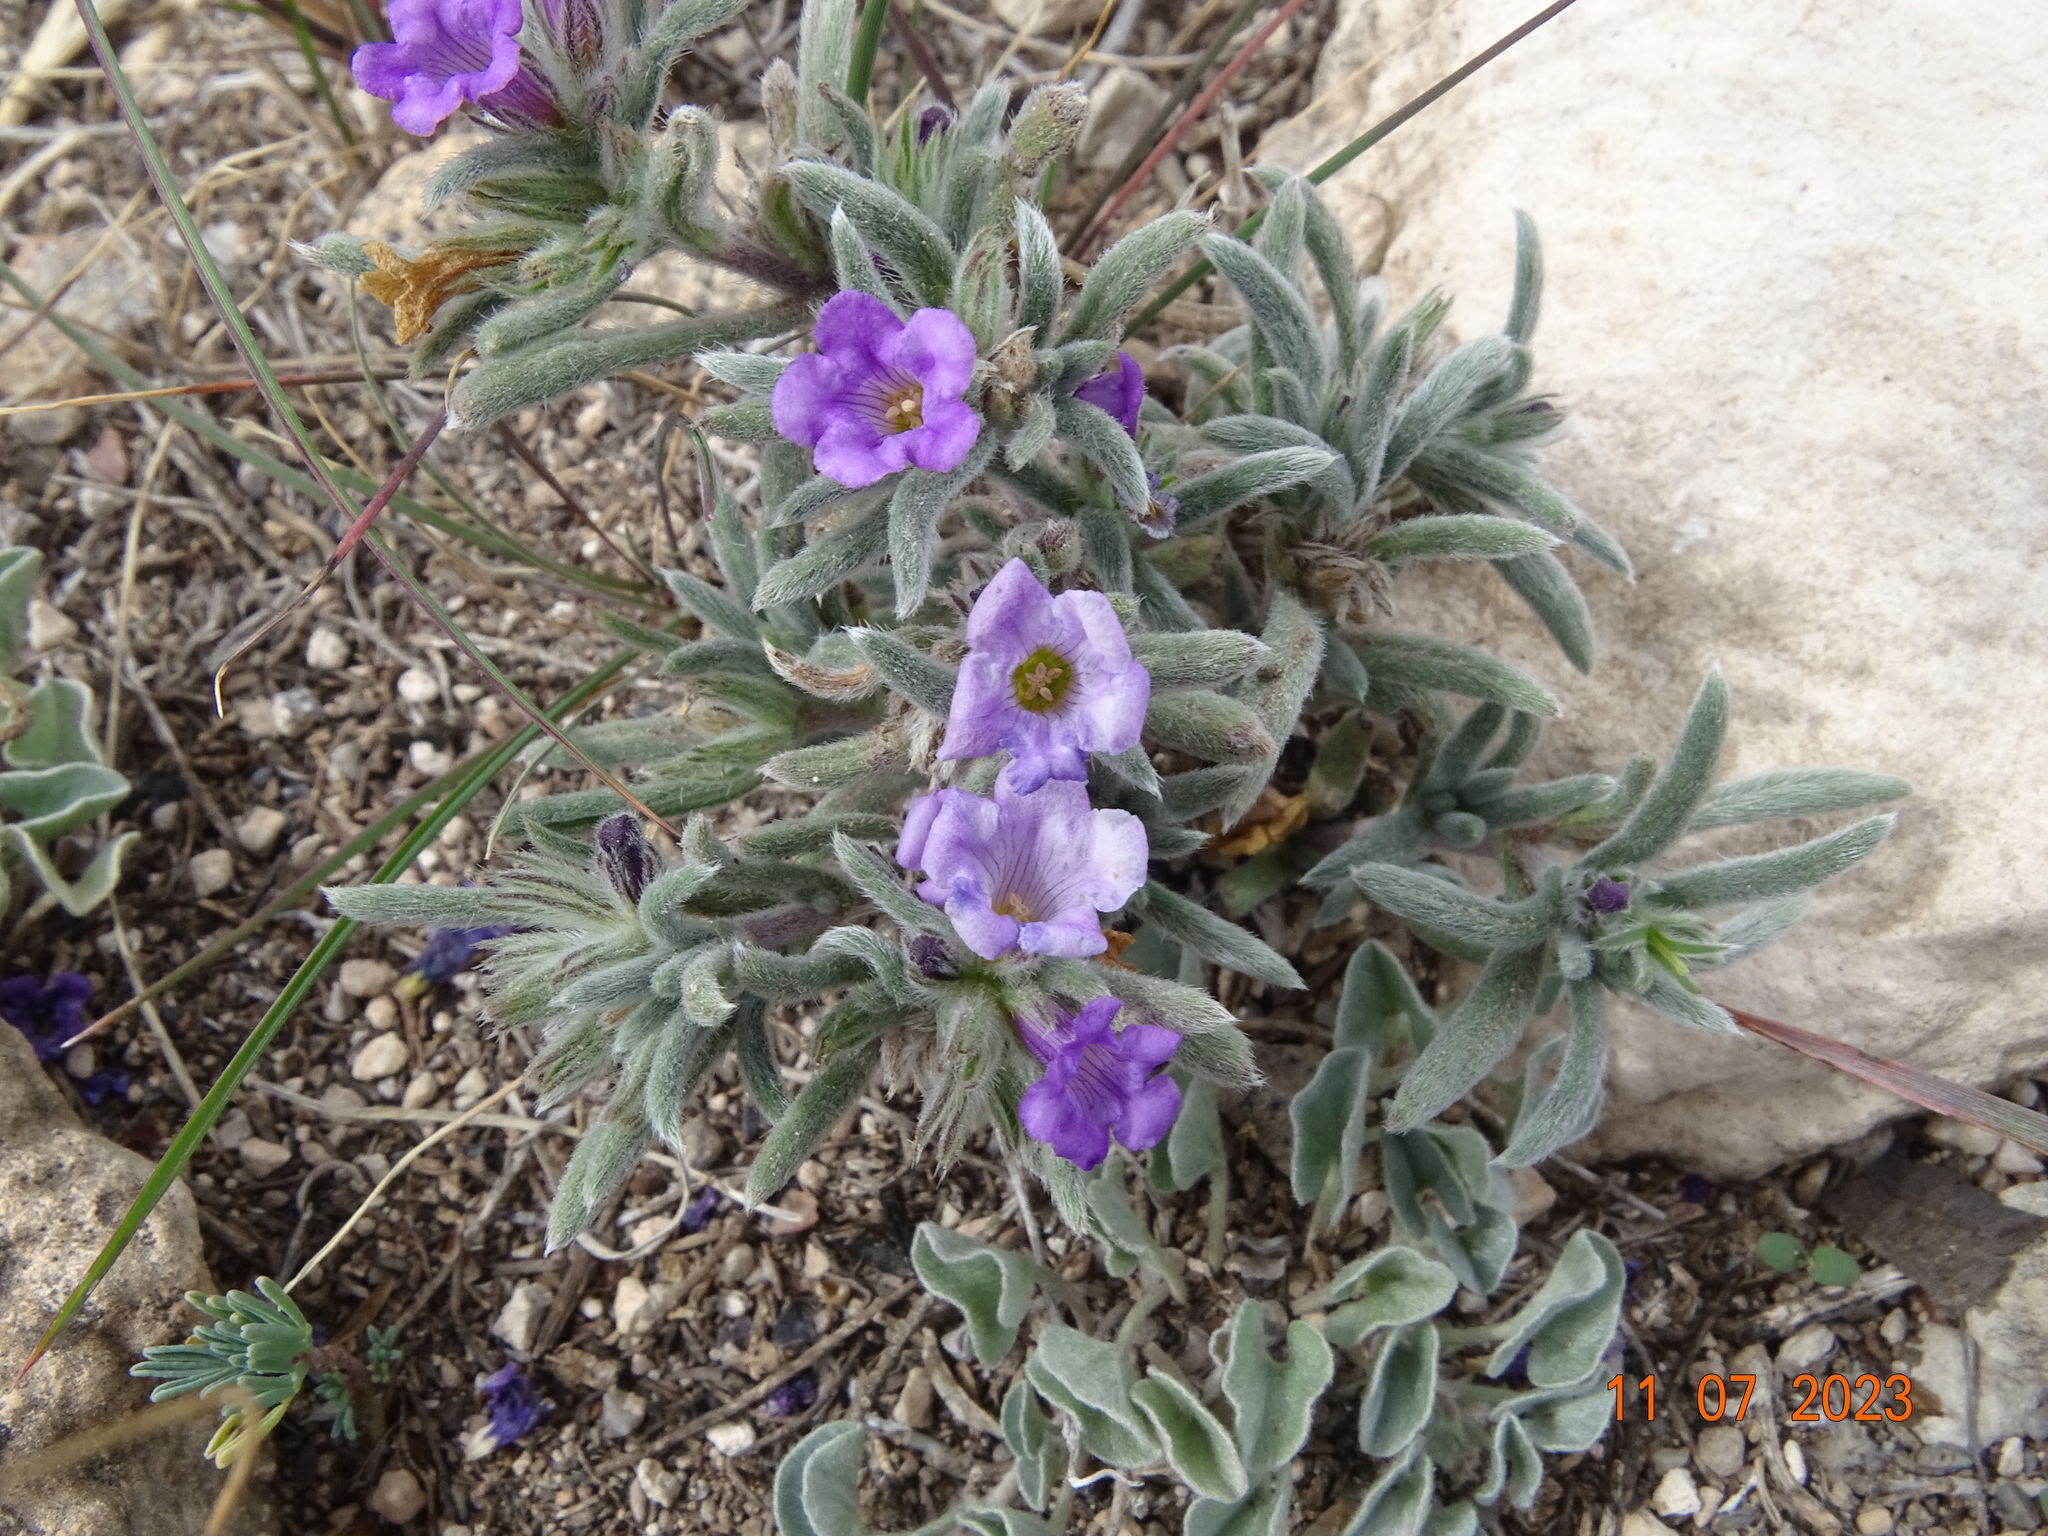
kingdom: Plantae
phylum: Tracheophyta
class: Magnoliopsida
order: Boraginales
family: Namaceae
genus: Nama
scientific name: Nama hispida
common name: Bristly nama
